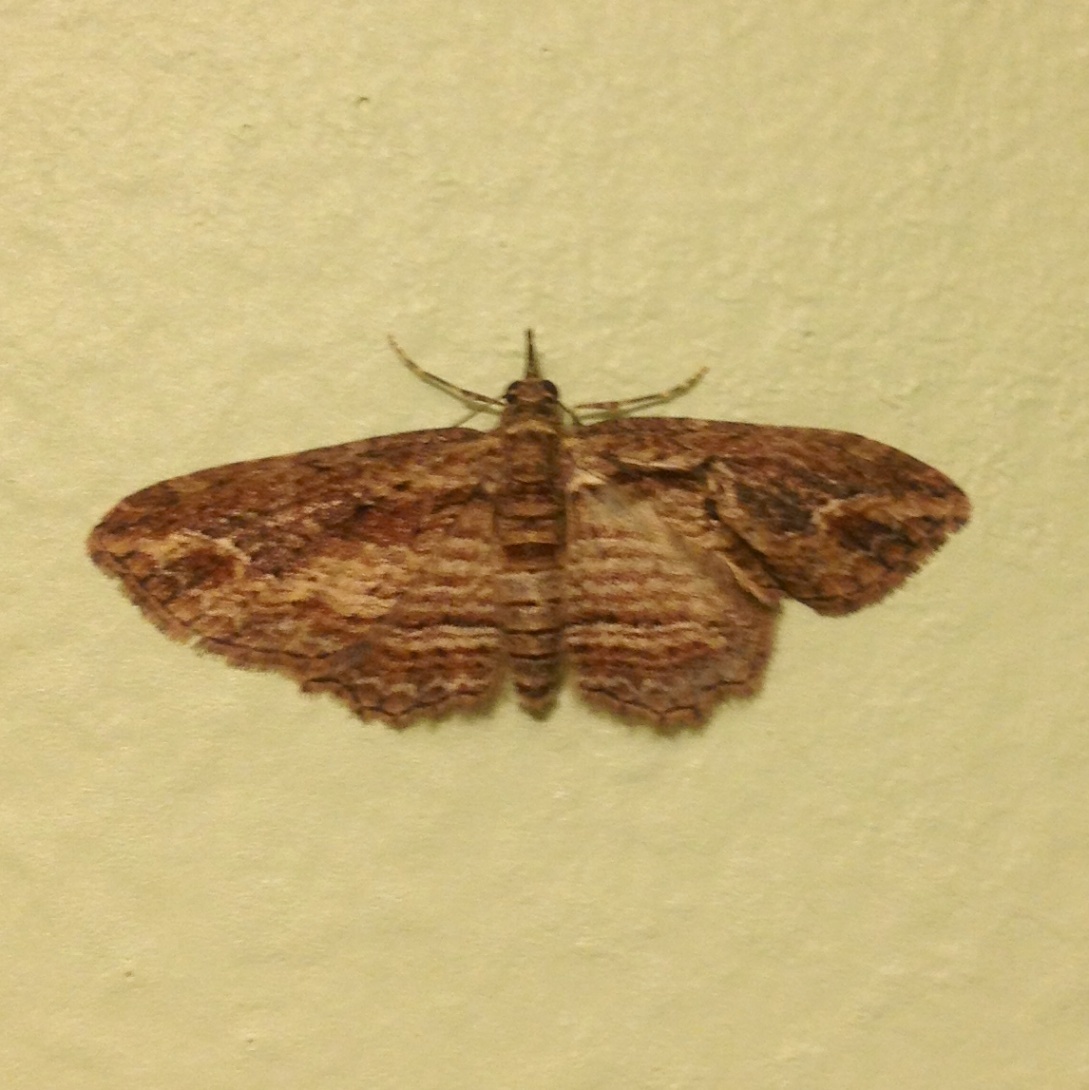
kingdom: Animalia
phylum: Arthropoda
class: Insecta
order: Lepidoptera
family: Geometridae
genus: Chloroclystis
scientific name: Chloroclystis filata
